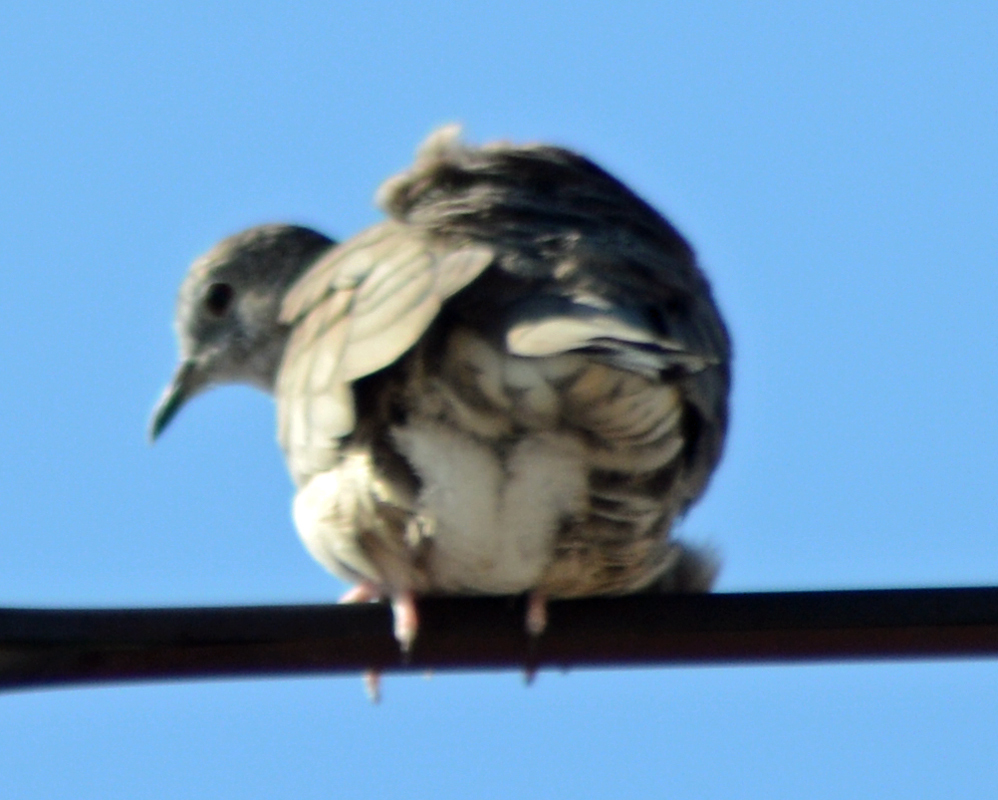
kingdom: Animalia
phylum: Chordata
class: Aves
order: Columbiformes
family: Columbidae
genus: Columbina
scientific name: Columbina inca
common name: Inca dove
